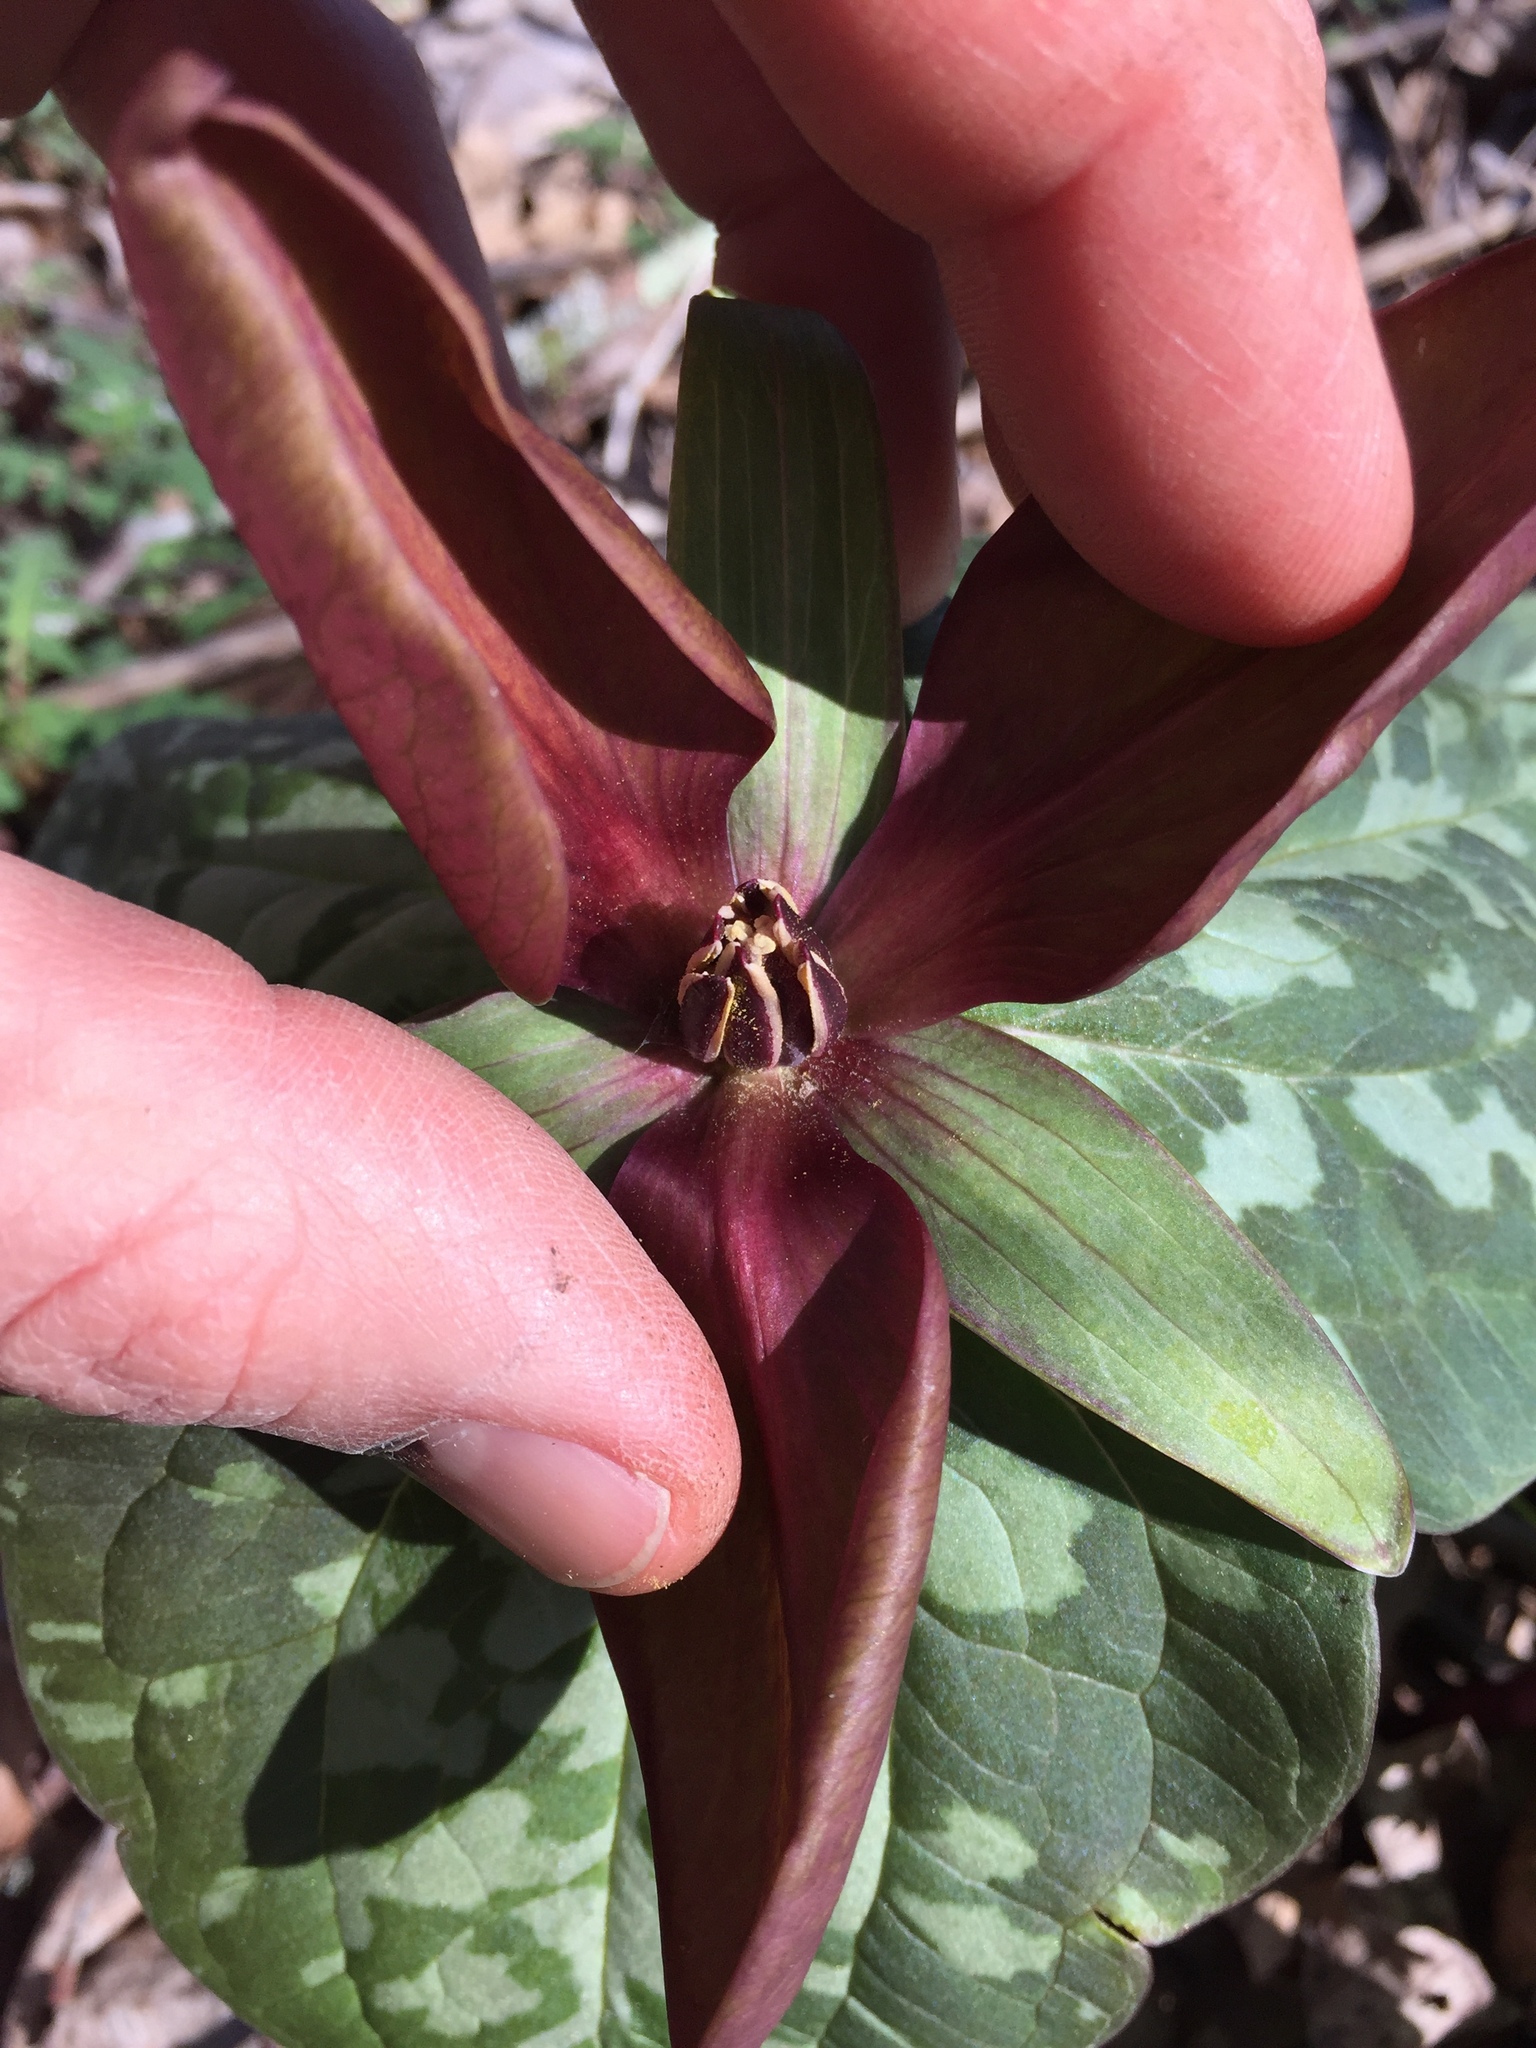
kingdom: Plantae
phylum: Tracheophyta
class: Liliopsida
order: Liliales
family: Melanthiaceae
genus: Trillium
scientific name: Trillium cuneatum
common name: Cuneate trillium
